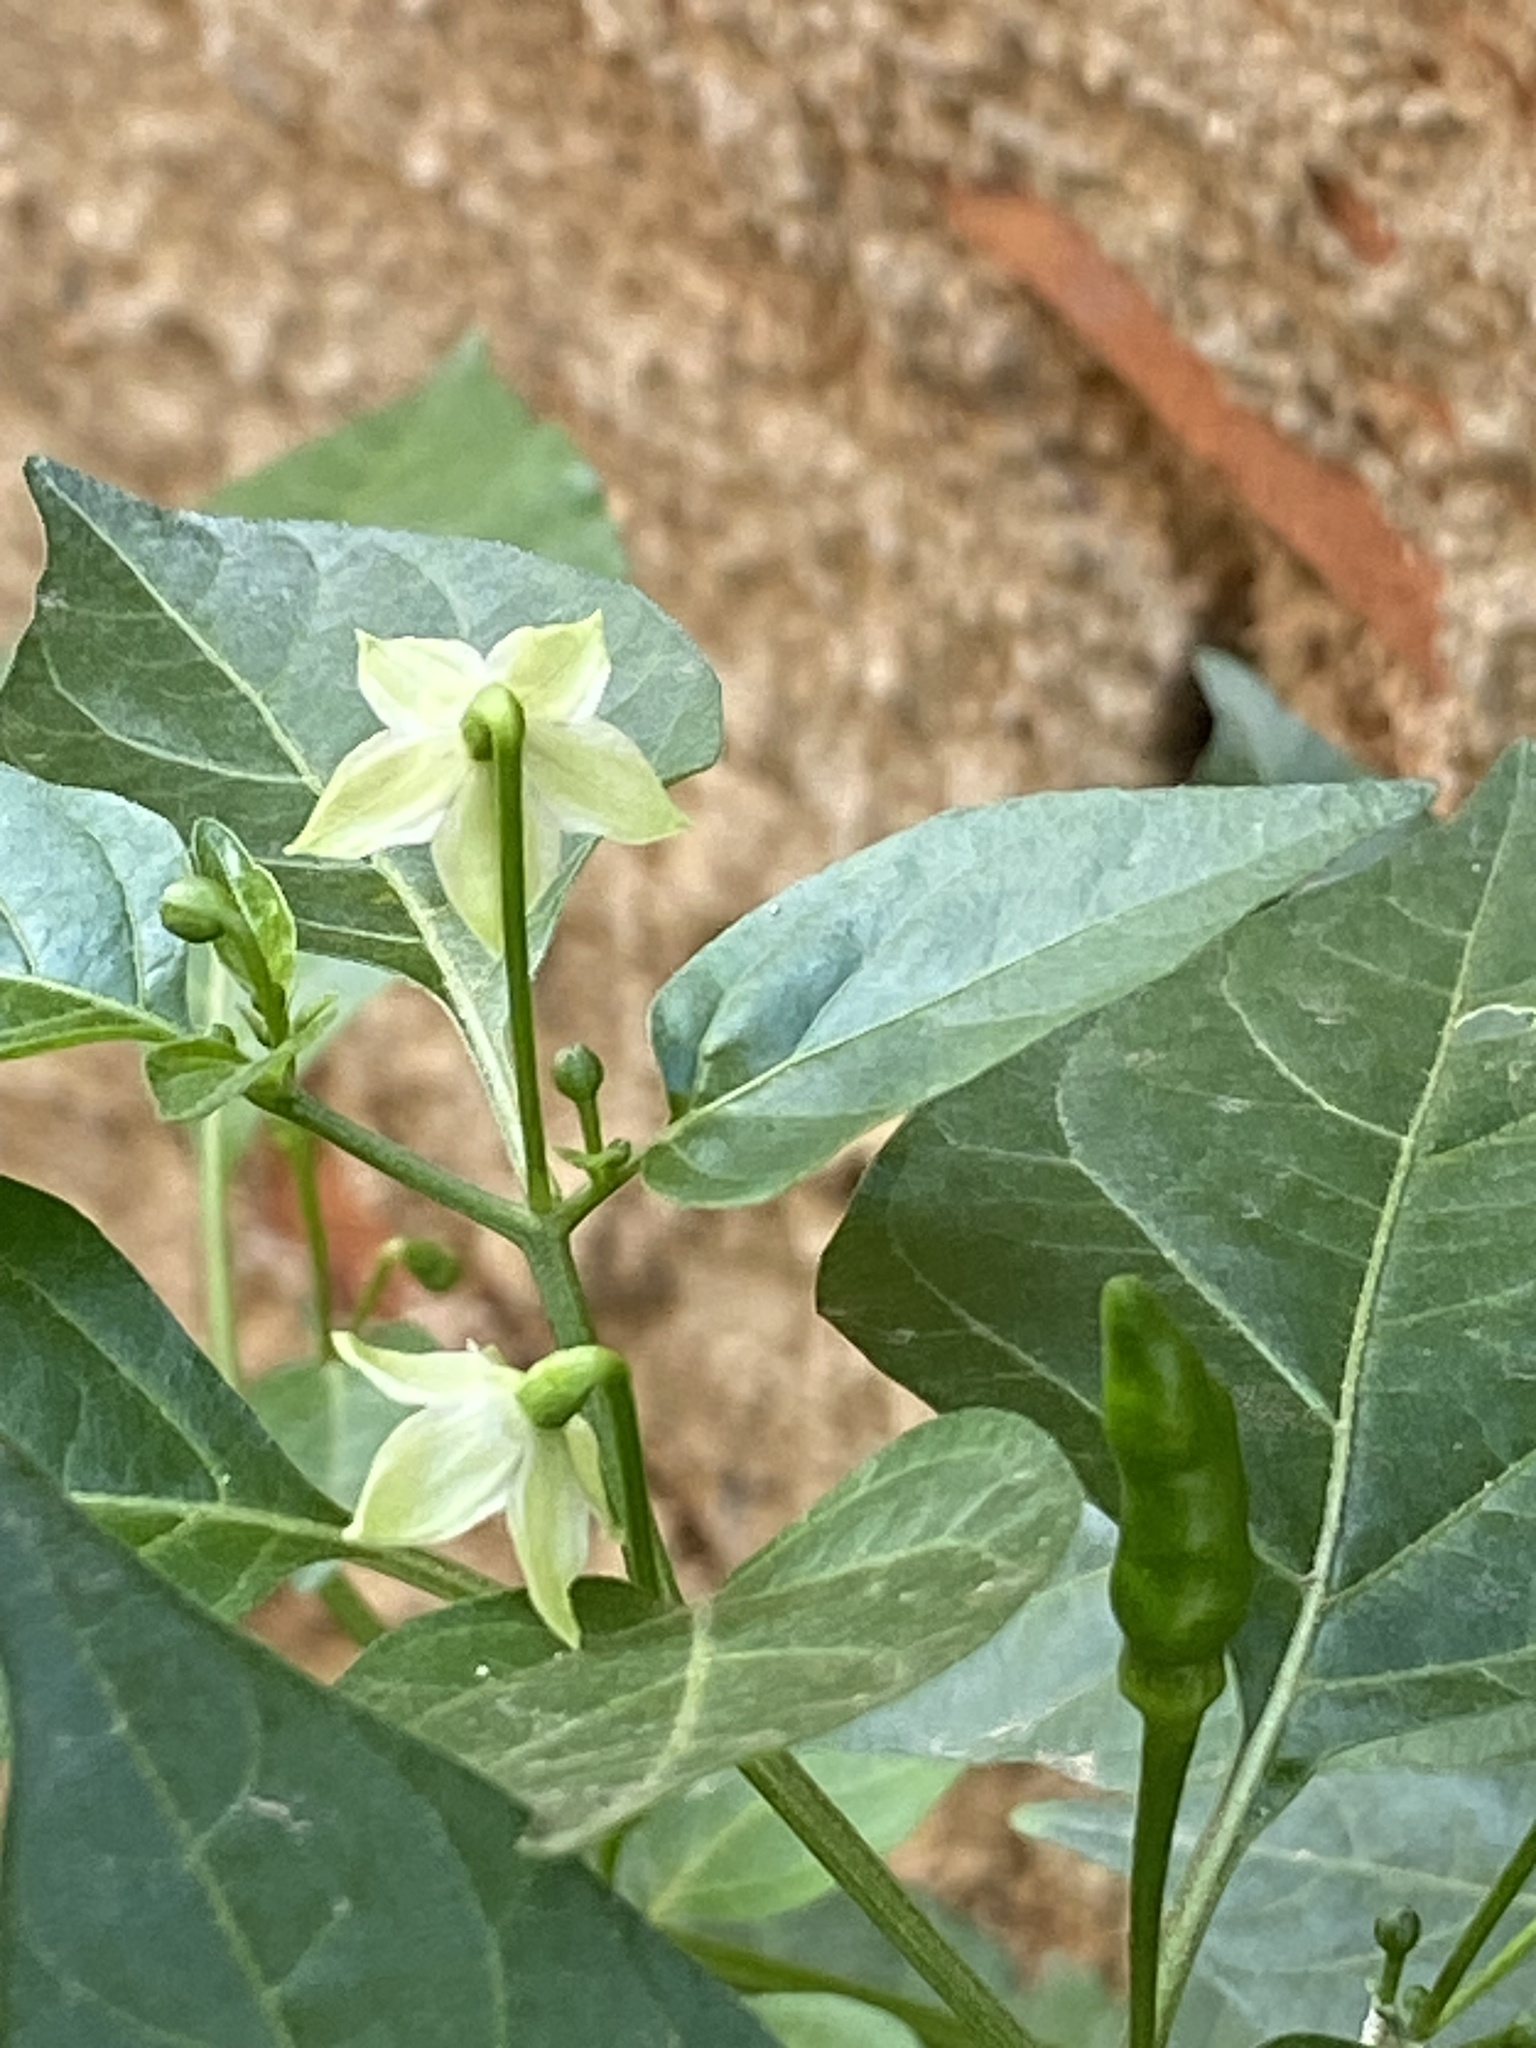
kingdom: Plantae
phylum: Tracheophyta
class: Magnoliopsida
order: Solanales
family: Solanaceae
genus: Capsicum
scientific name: Capsicum annuum
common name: Sweet pepper
